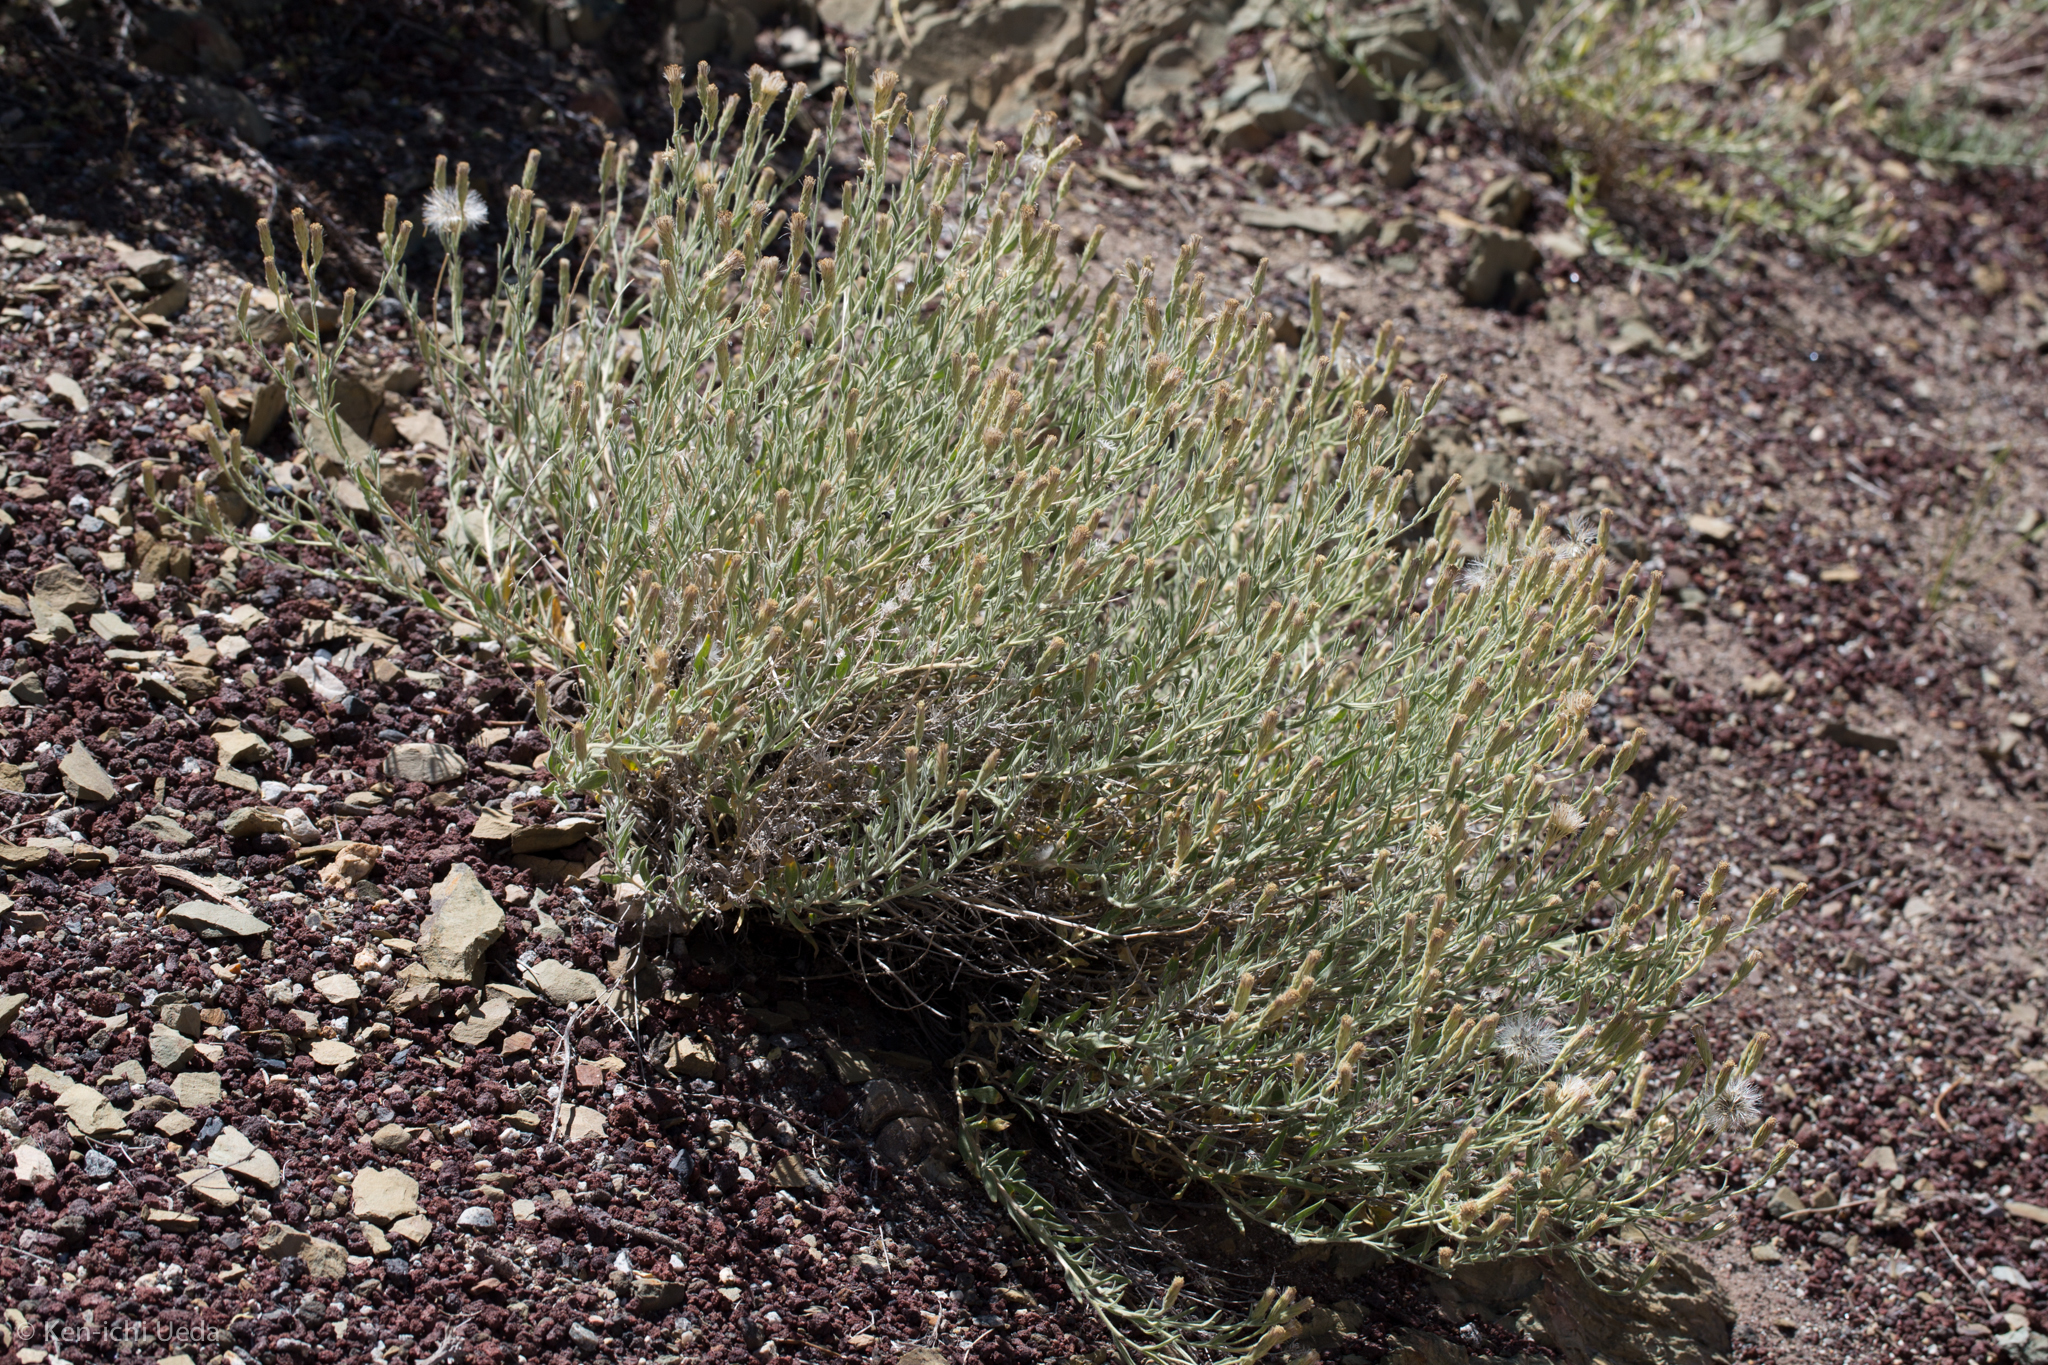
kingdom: Plantae
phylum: Tracheophyta
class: Magnoliopsida
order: Asterales
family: Asteraceae
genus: Brickellia
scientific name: Brickellia oblongifolia
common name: Mojave brickellbush
